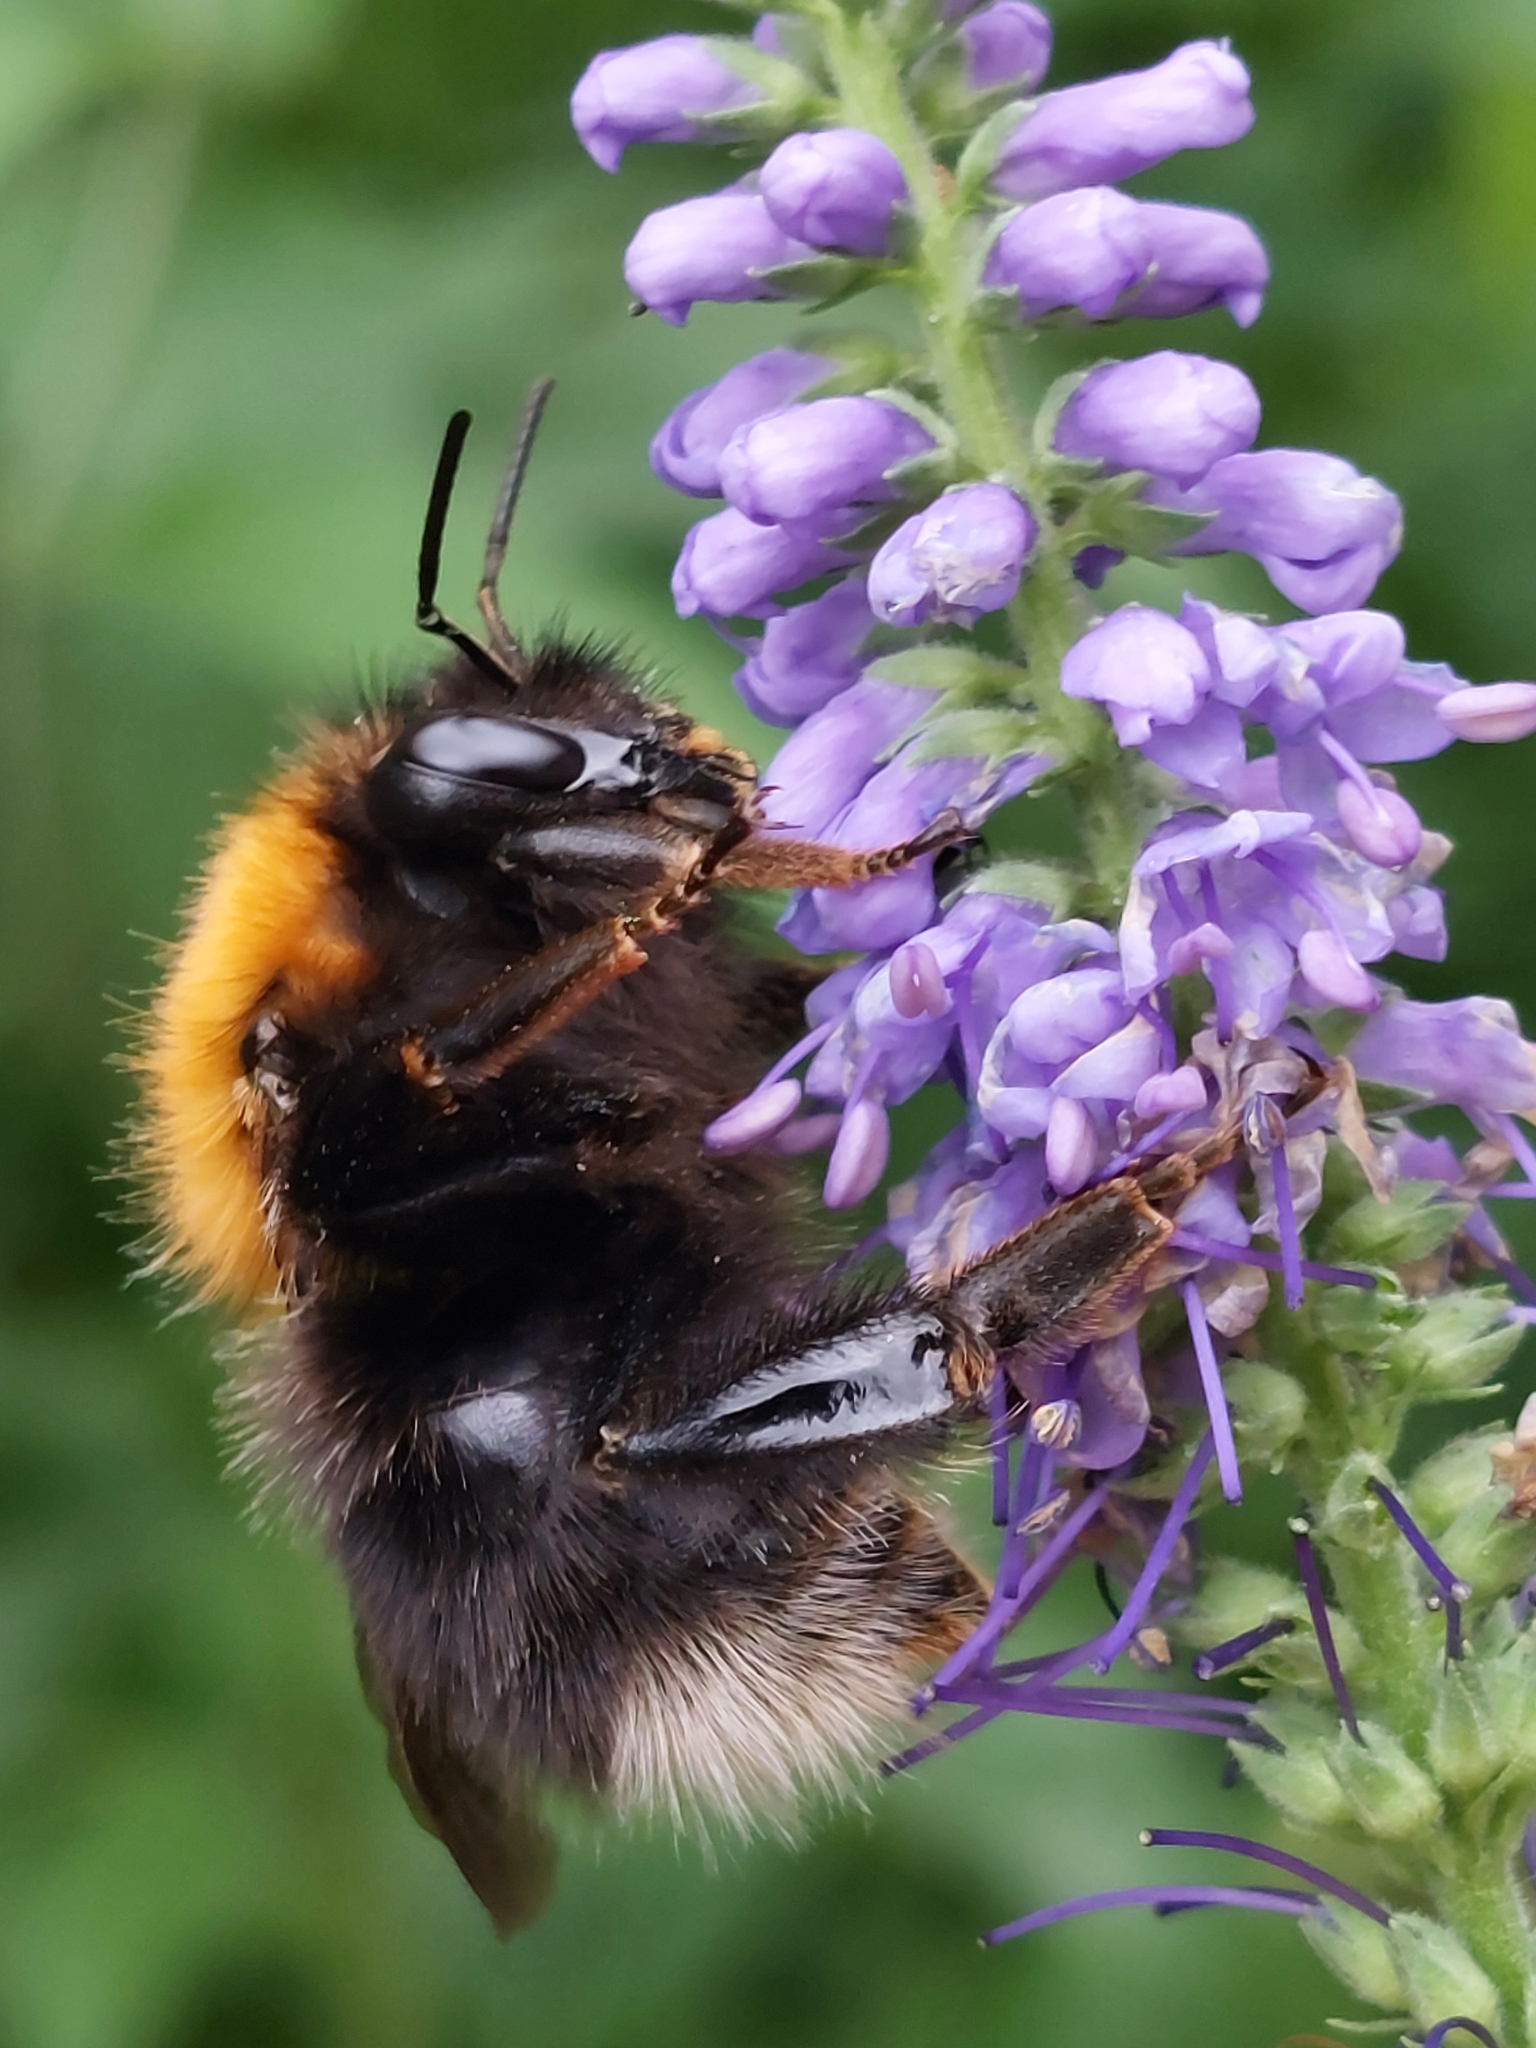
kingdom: Animalia
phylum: Arthropoda
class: Insecta
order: Hymenoptera
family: Apidae
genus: Bombus
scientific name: Bombus hypnorum
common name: New garden bumblebee
